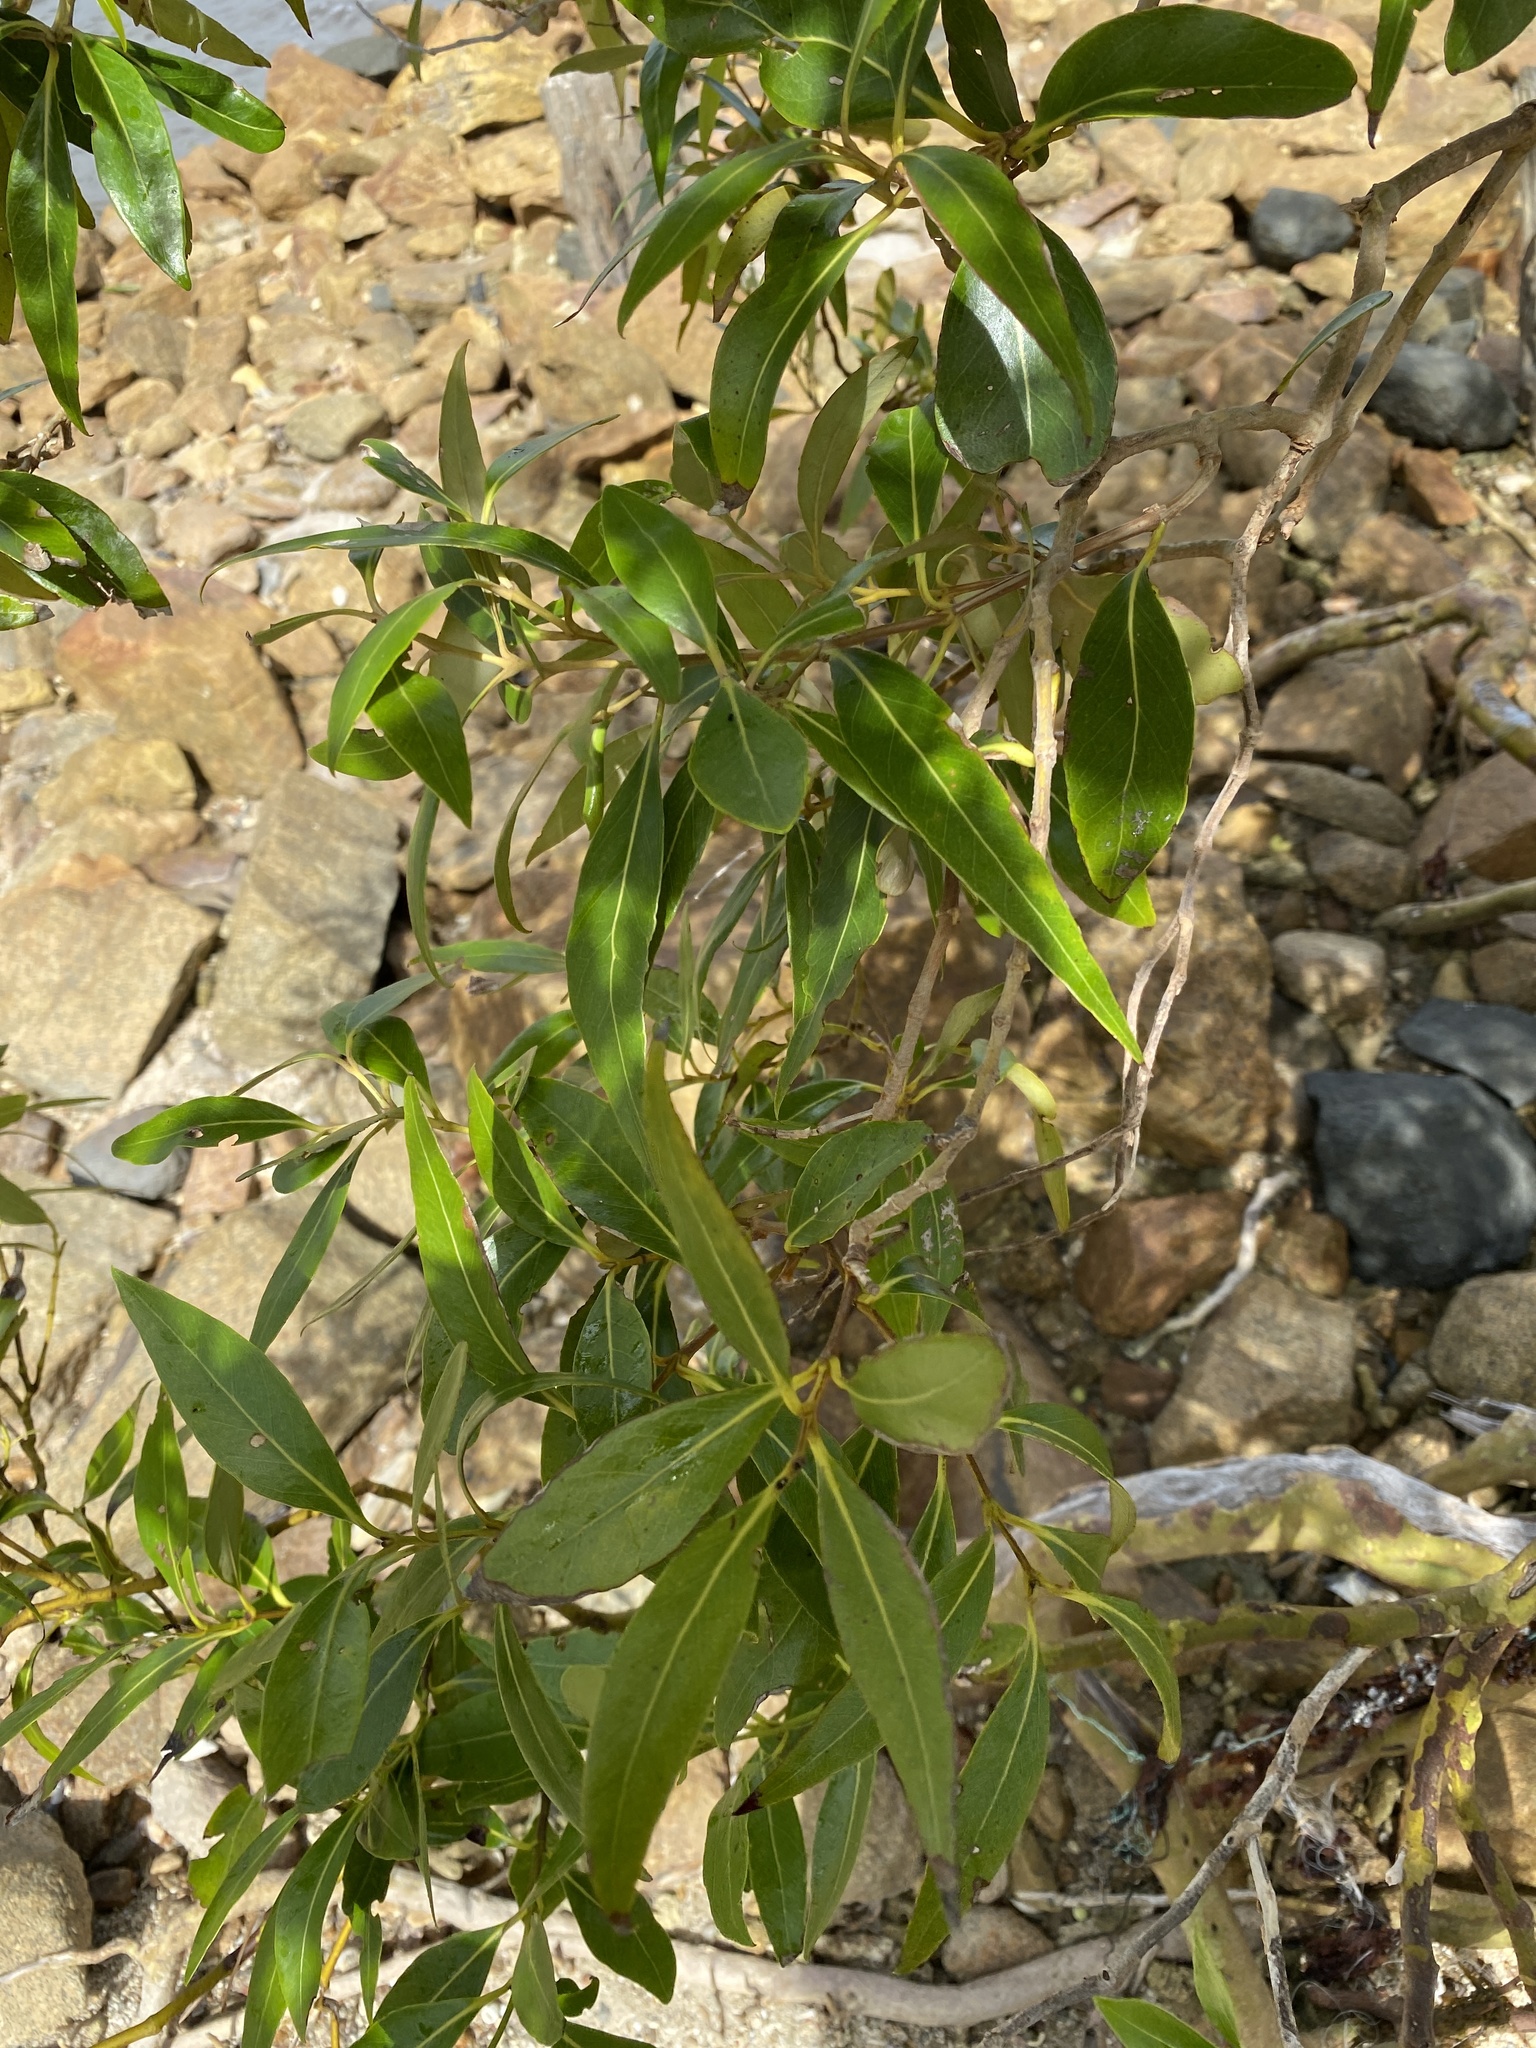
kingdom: Plantae
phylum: Tracheophyta
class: Magnoliopsida
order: Lamiales
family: Acanthaceae
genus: Avicennia
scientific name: Avicennia marina
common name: Gray mangrove
